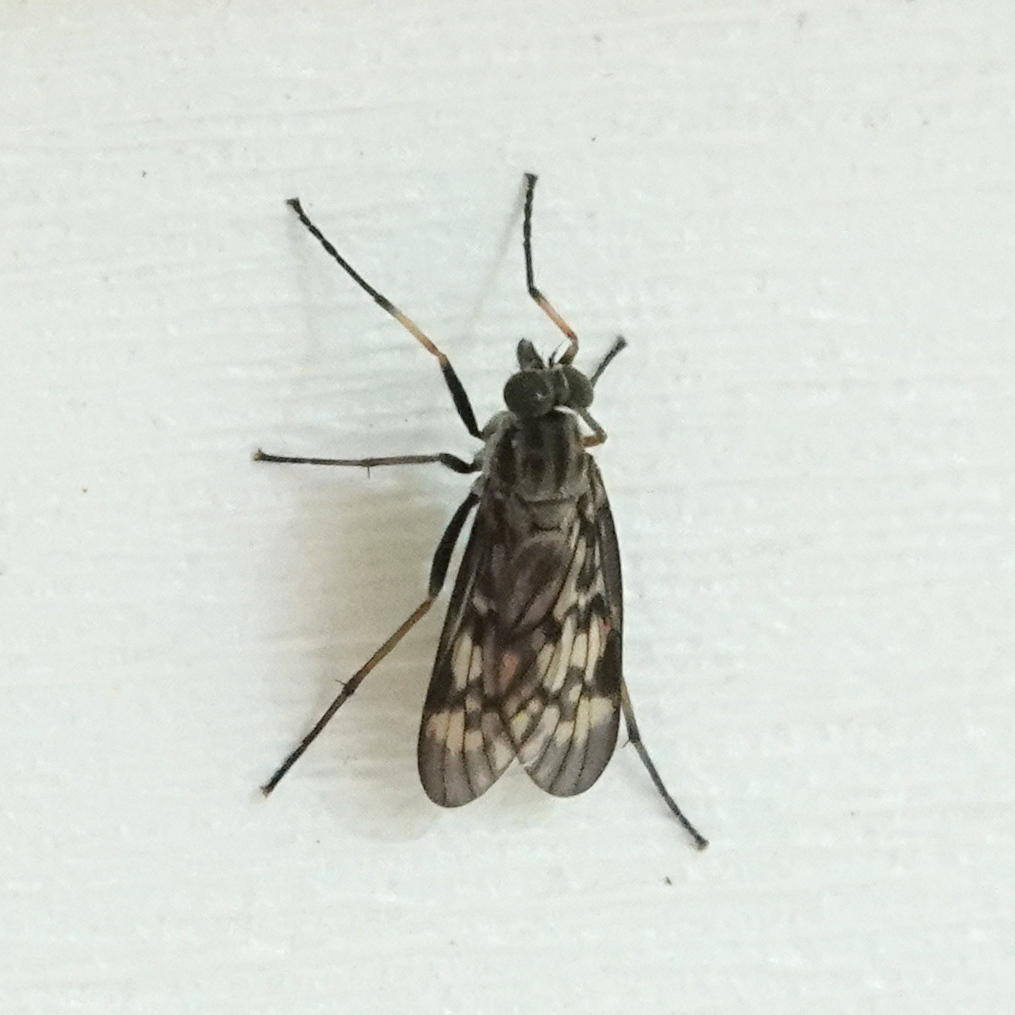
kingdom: Animalia
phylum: Arthropoda
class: Insecta
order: Diptera
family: Rhagionidae
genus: Rhagio
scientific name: Rhagio punctipennis
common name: Lesser variegated snipe fly
